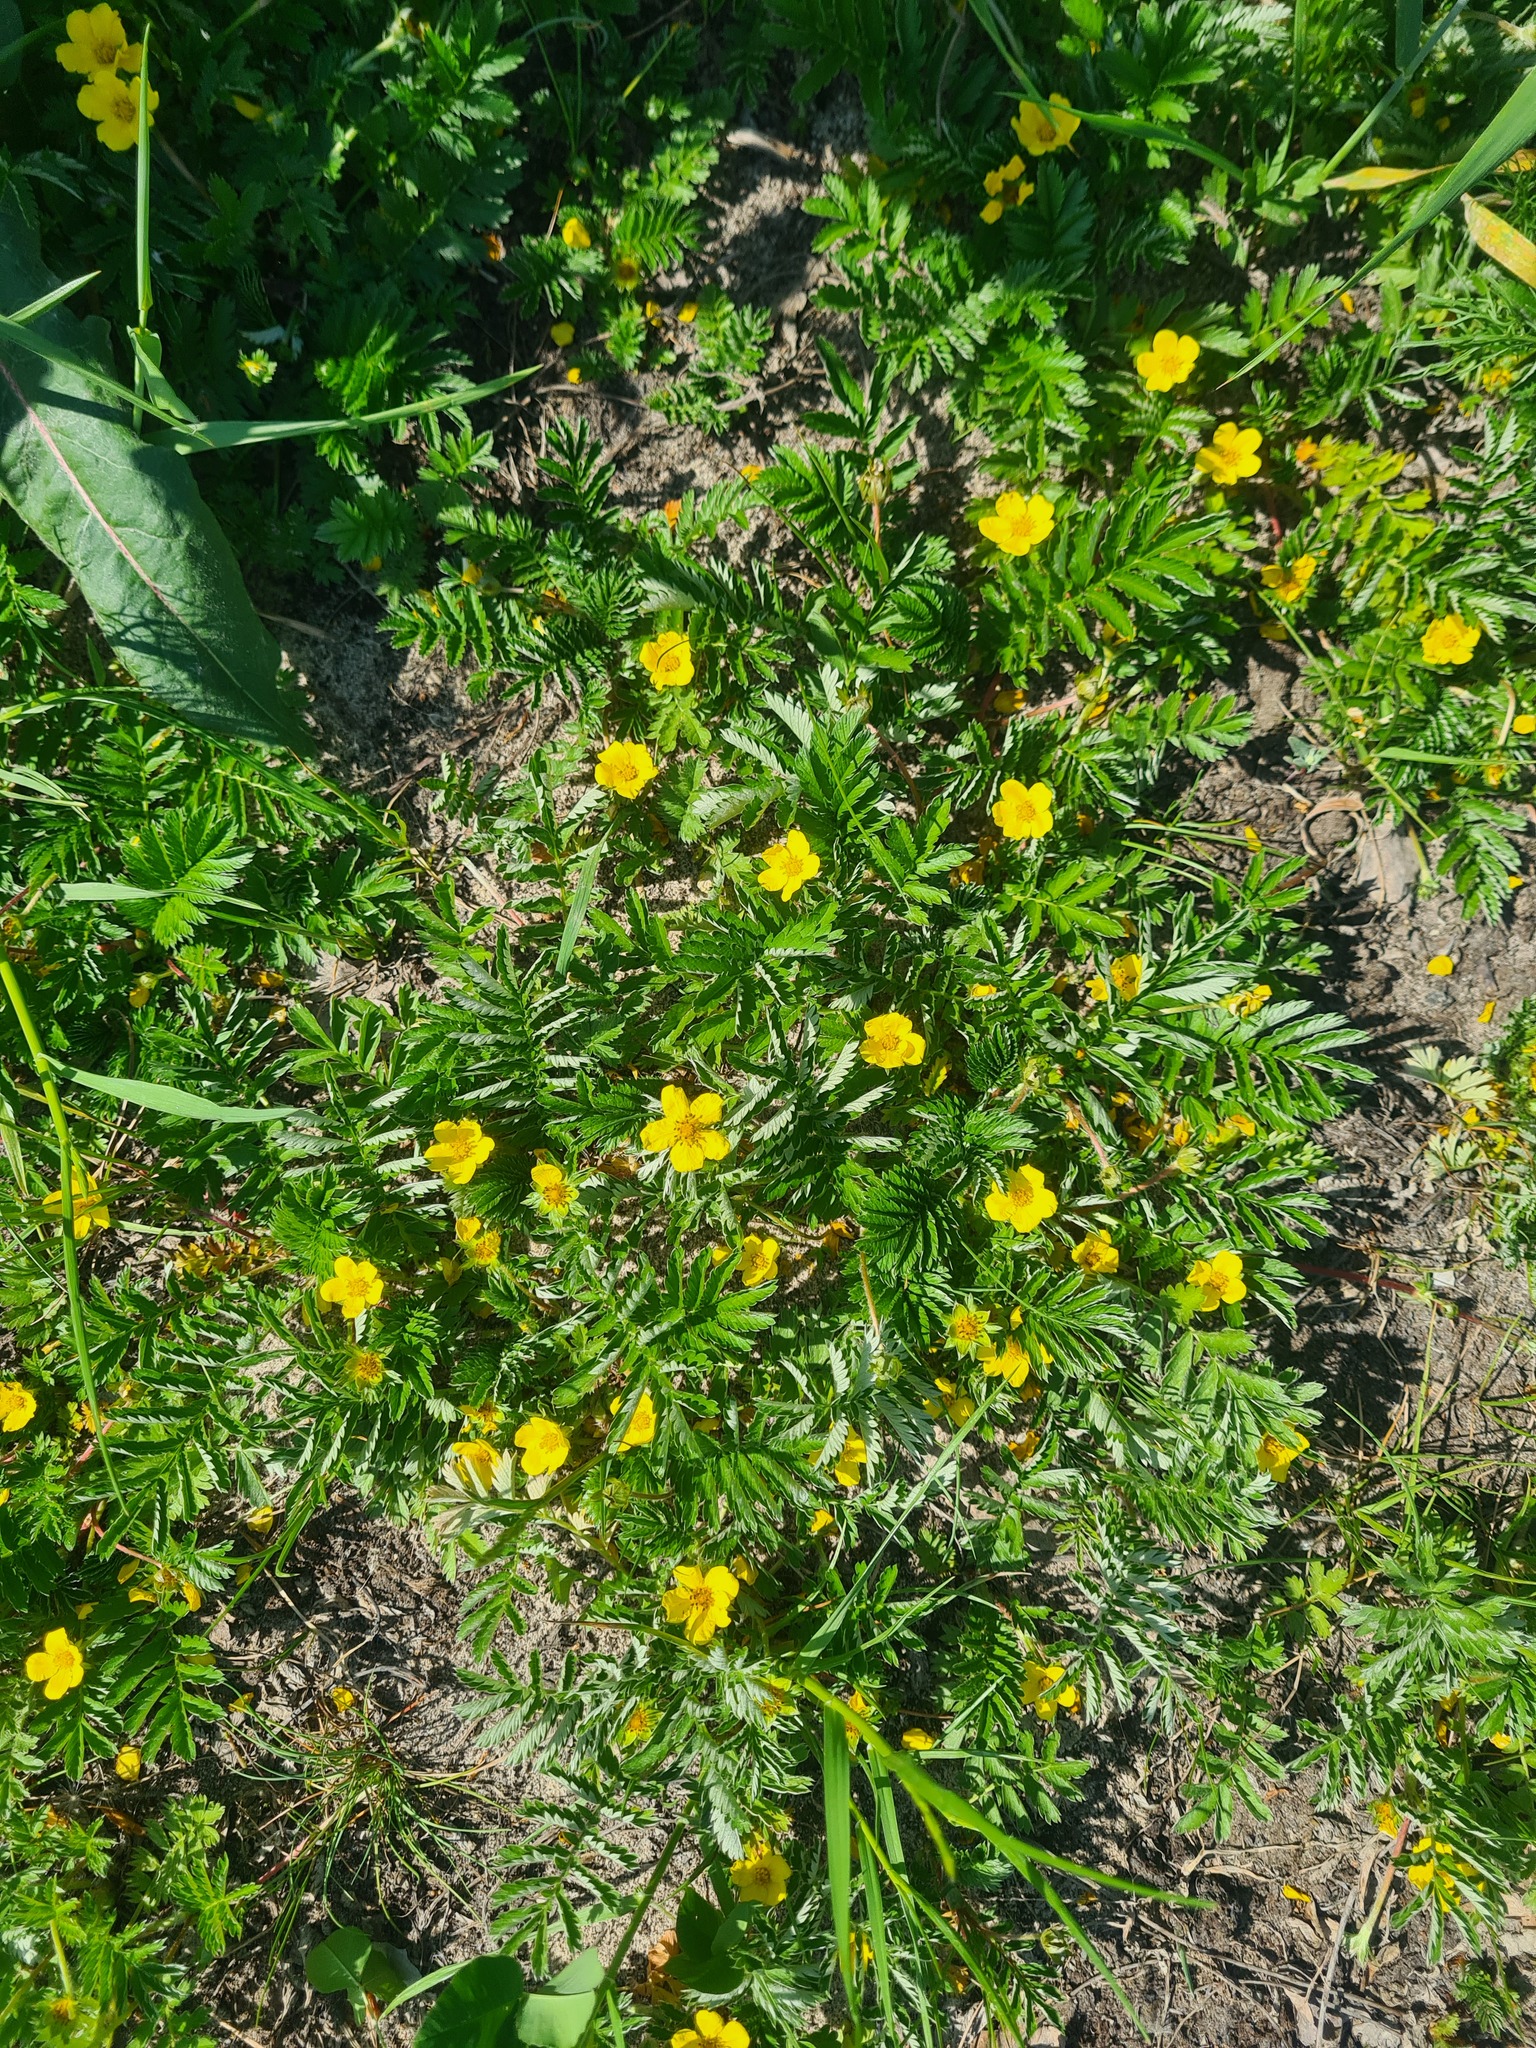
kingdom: Plantae
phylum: Tracheophyta
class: Magnoliopsida
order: Rosales
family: Rosaceae
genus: Argentina
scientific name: Argentina anserina
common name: Common silverweed
